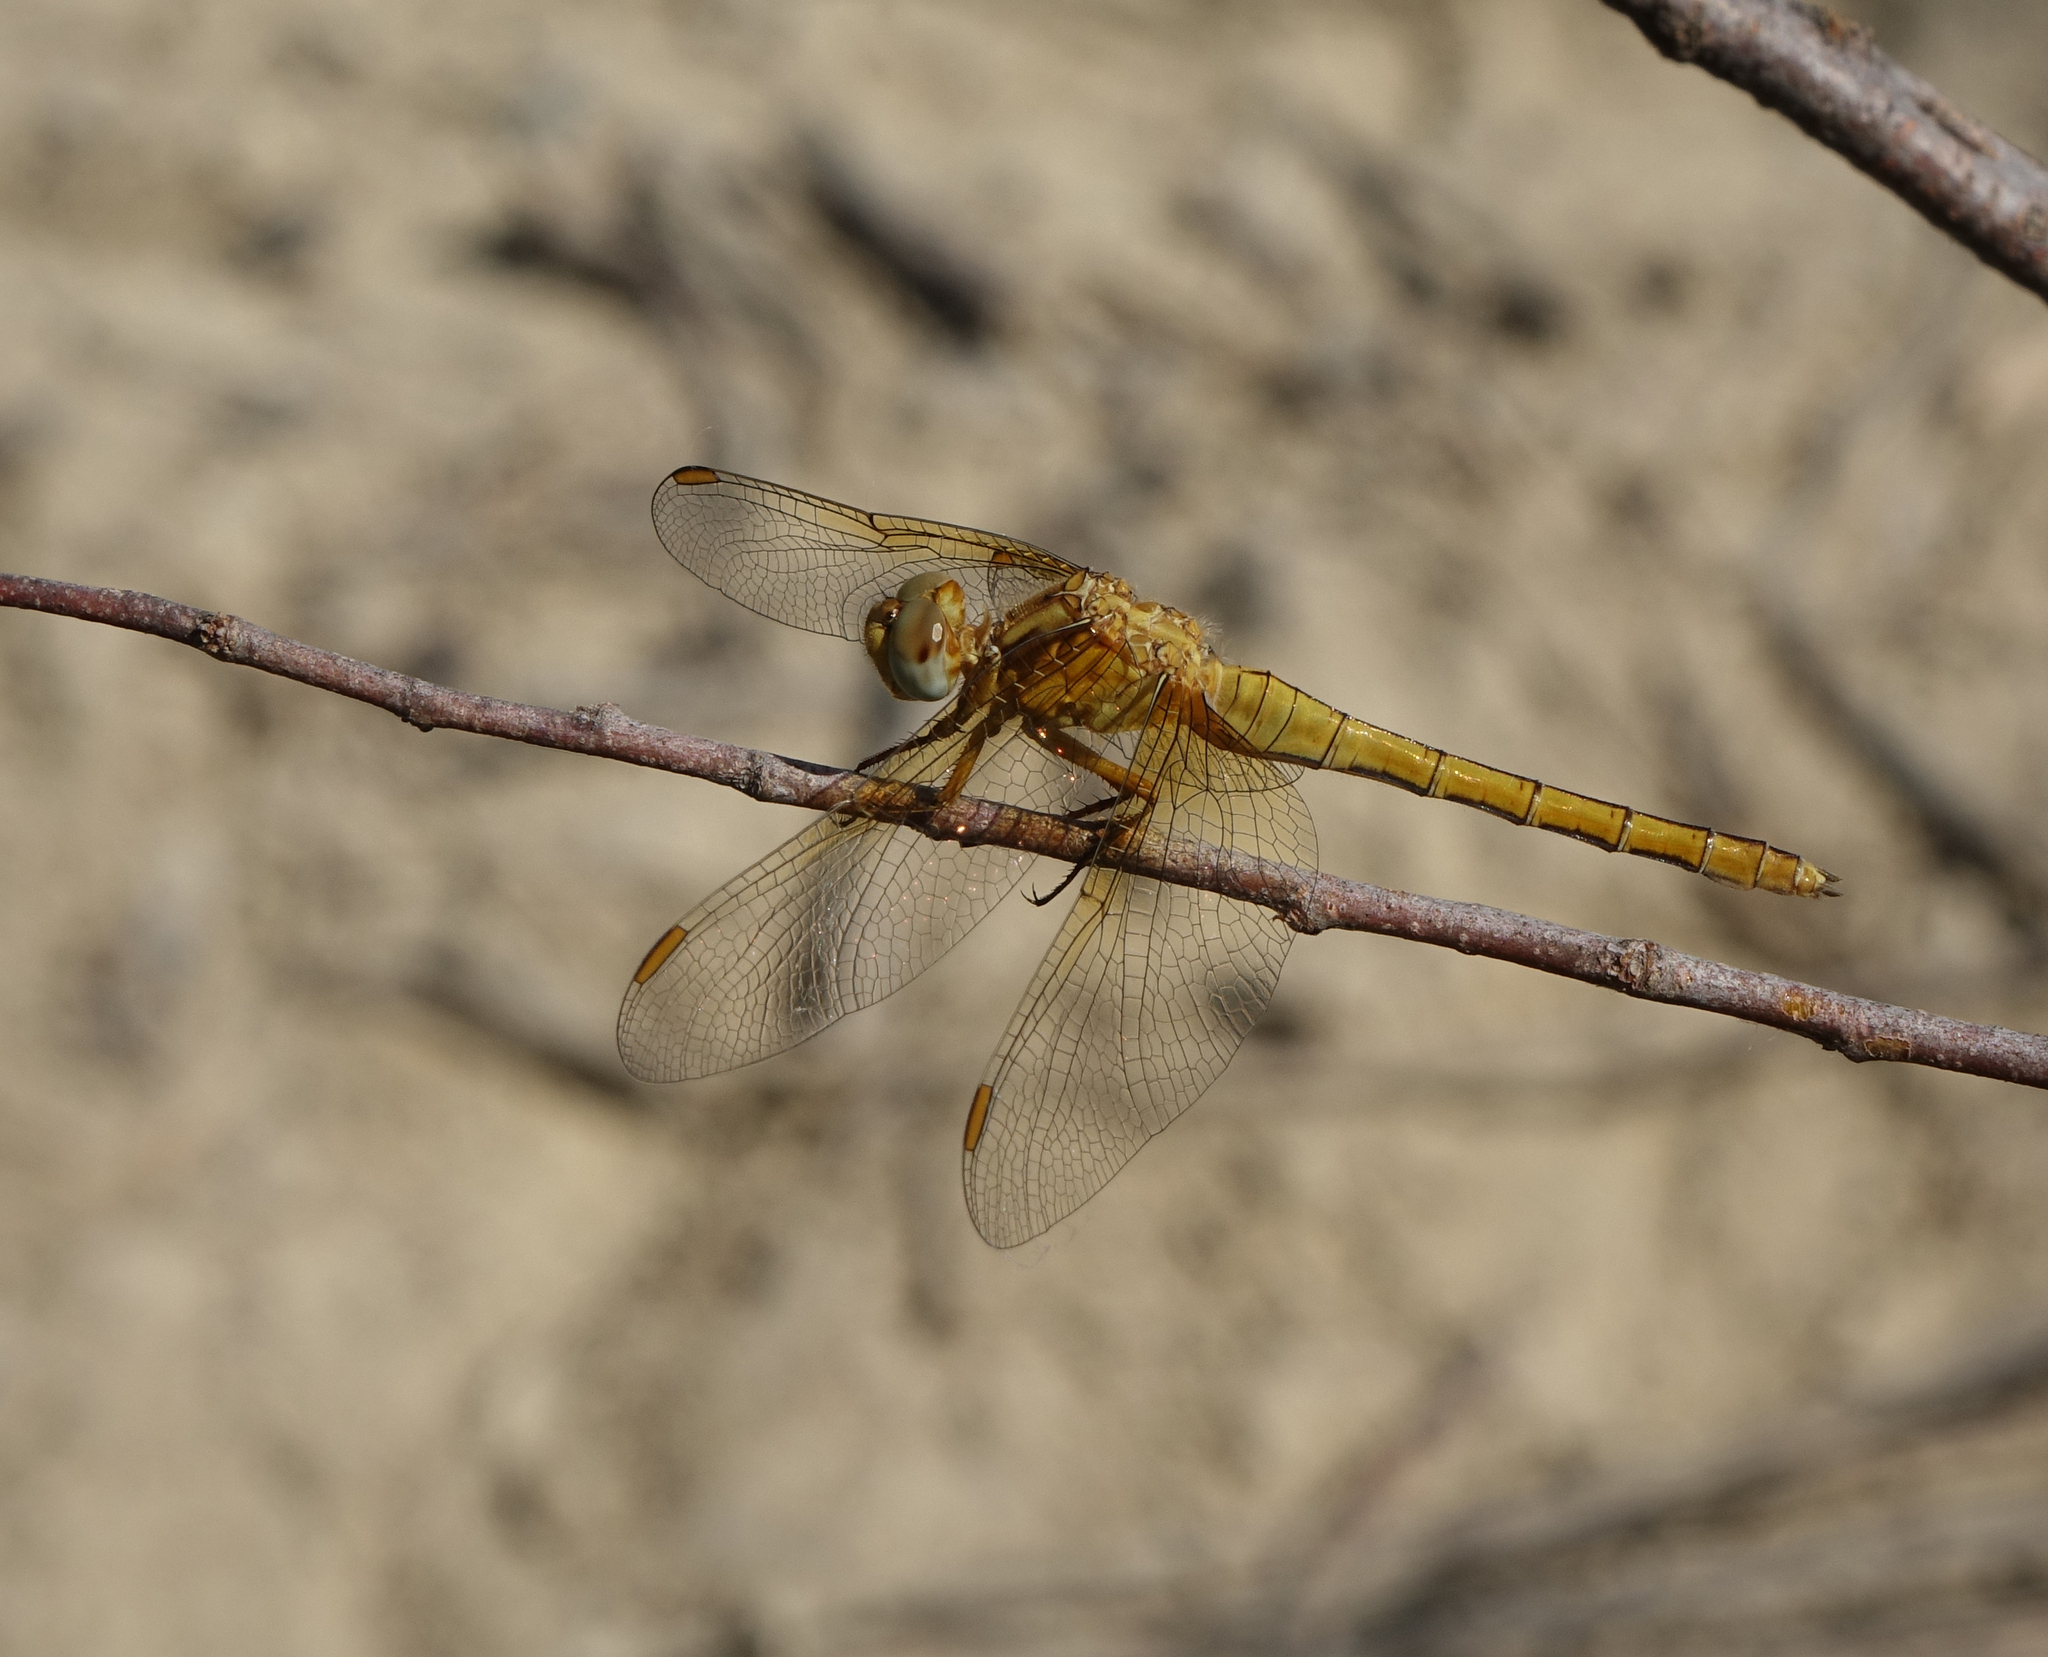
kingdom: Animalia
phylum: Arthropoda
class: Insecta
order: Odonata
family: Libellulidae
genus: Orthetrum
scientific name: Orthetrum coerulescens
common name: Keeled skimmer
